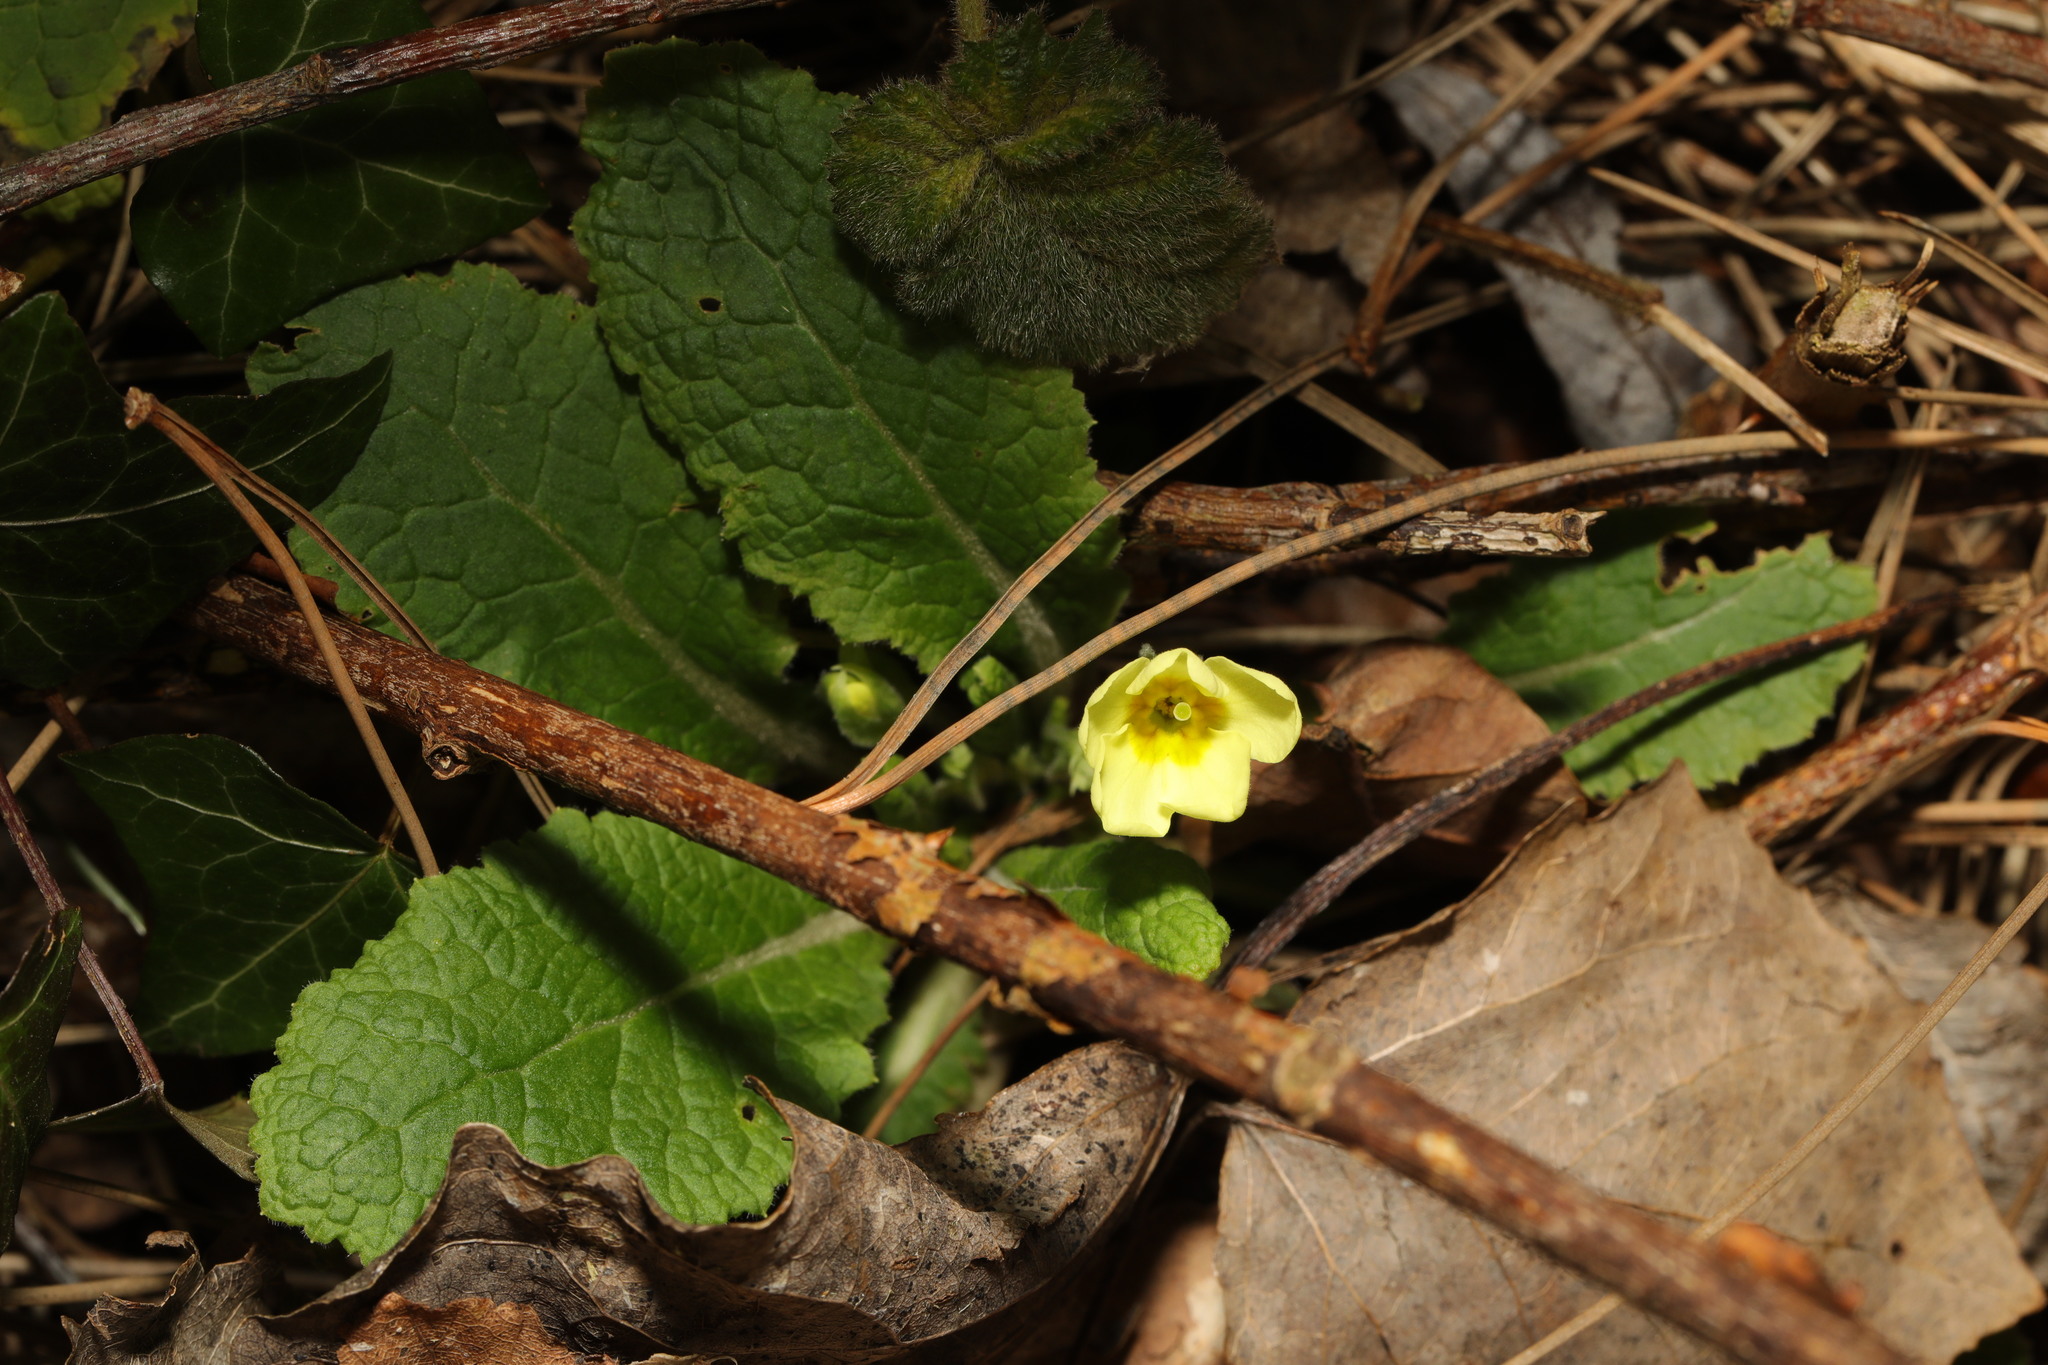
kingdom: Plantae
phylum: Tracheophyta
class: Magnoliopsida
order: Ericales
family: Primulaceae
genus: Primula
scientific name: Primula vulgaris
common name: Primrose
